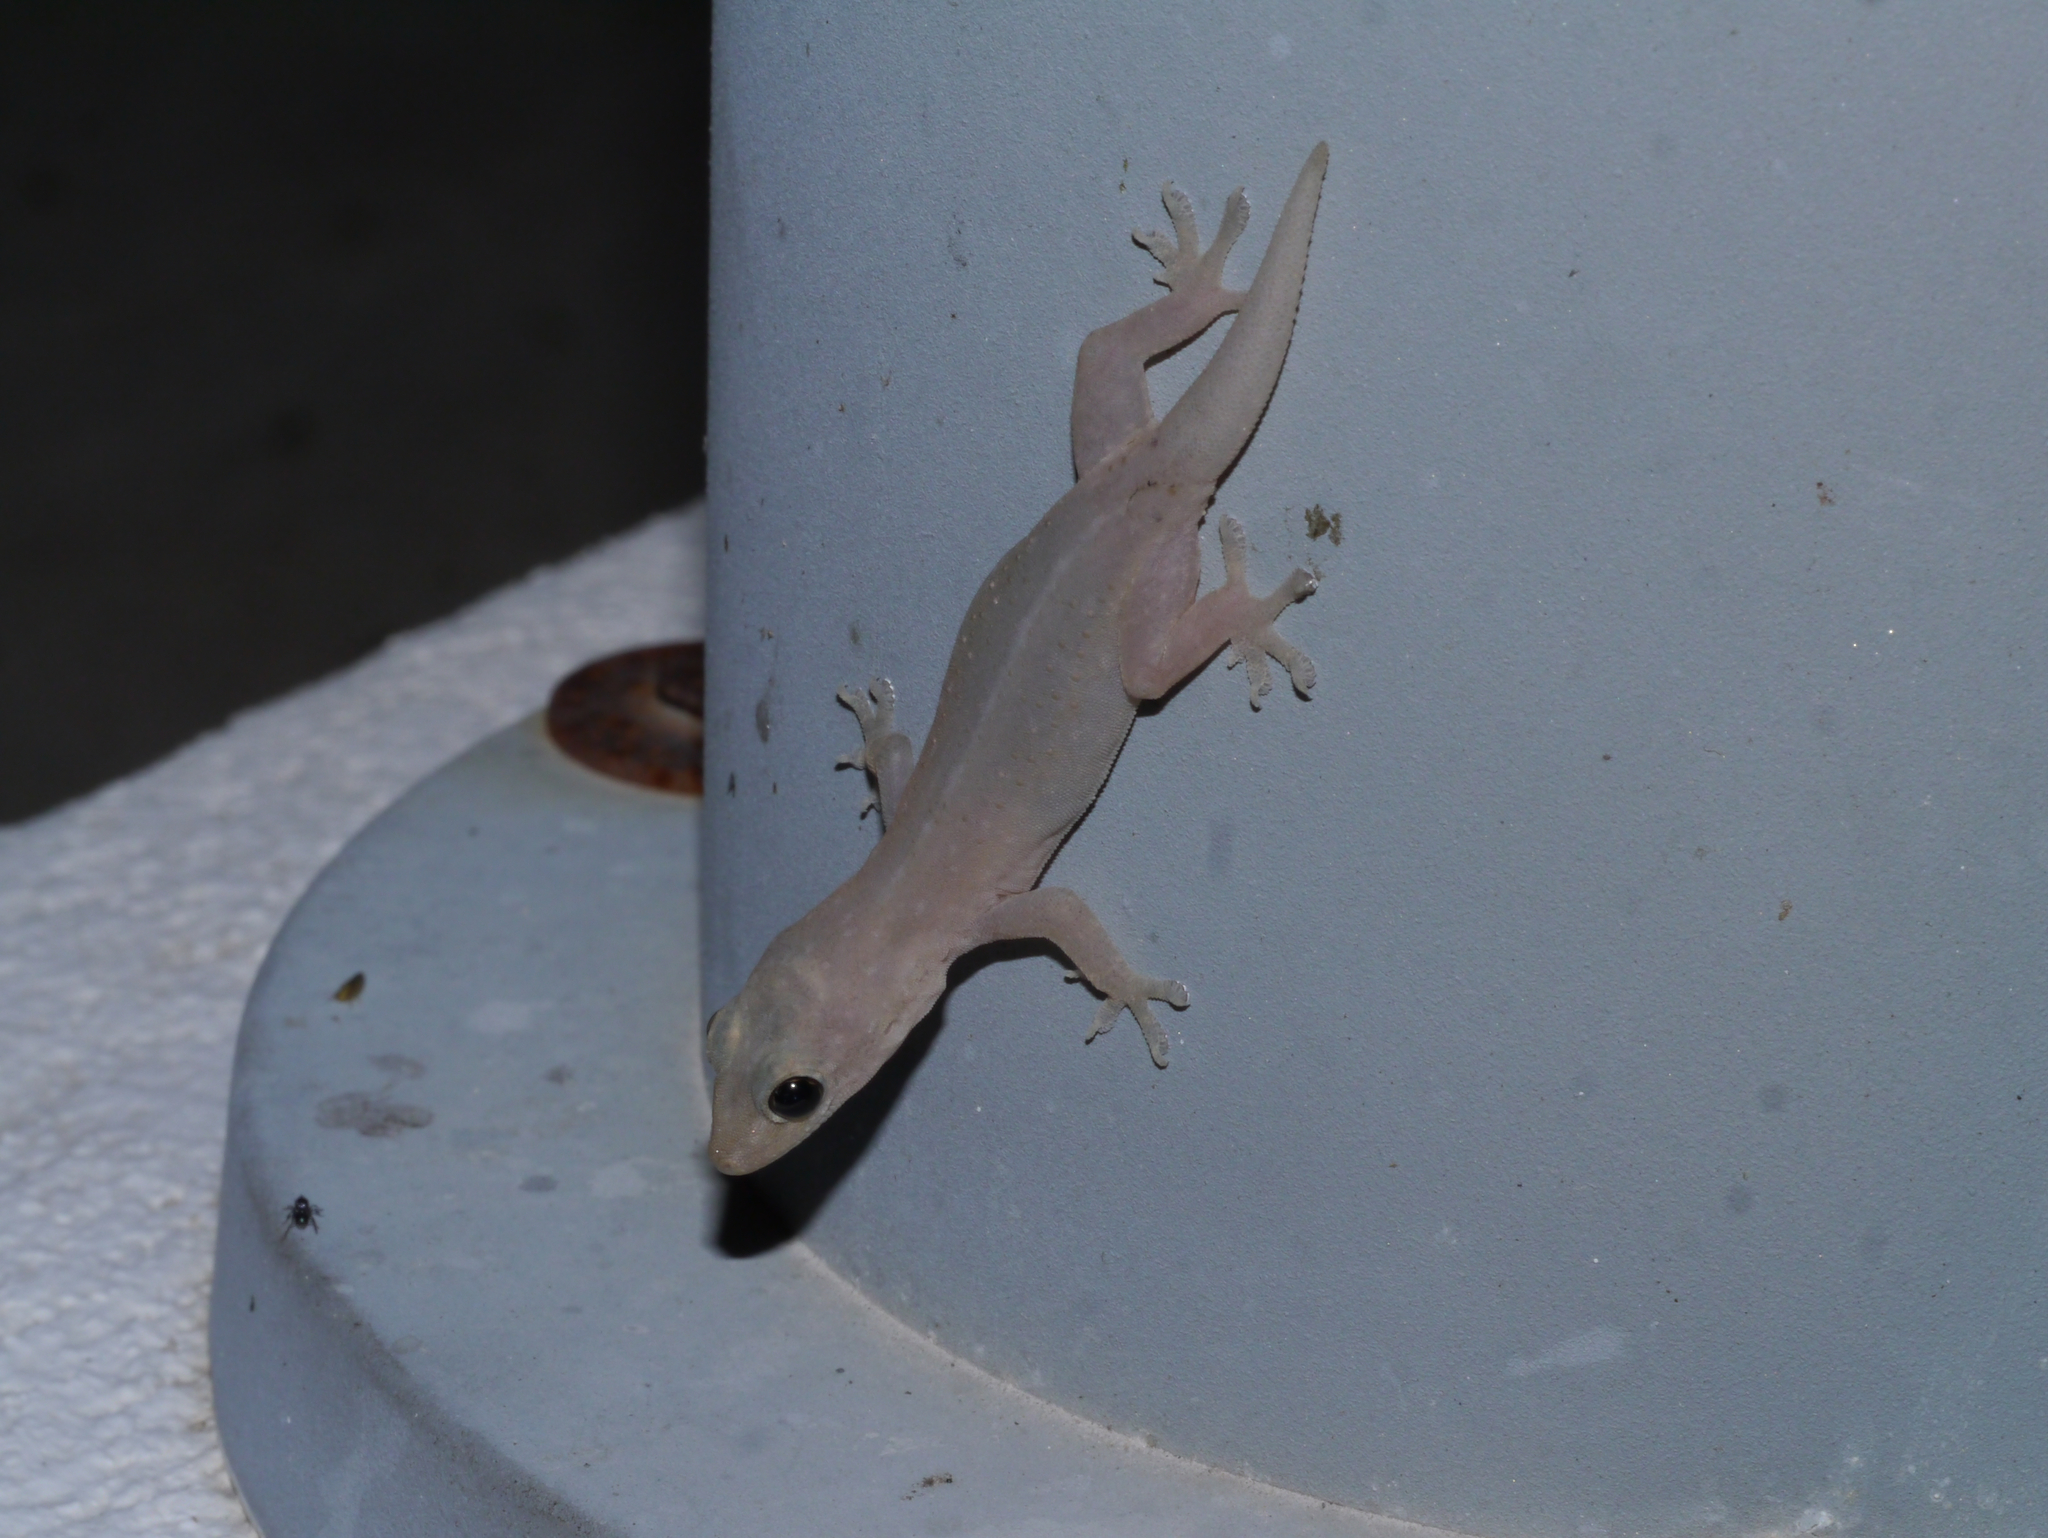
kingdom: Animalia
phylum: Chordata
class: Squamata
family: Gekkonidae
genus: Hemidactylus
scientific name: Hemidactylus frenatus
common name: Common house gecko
